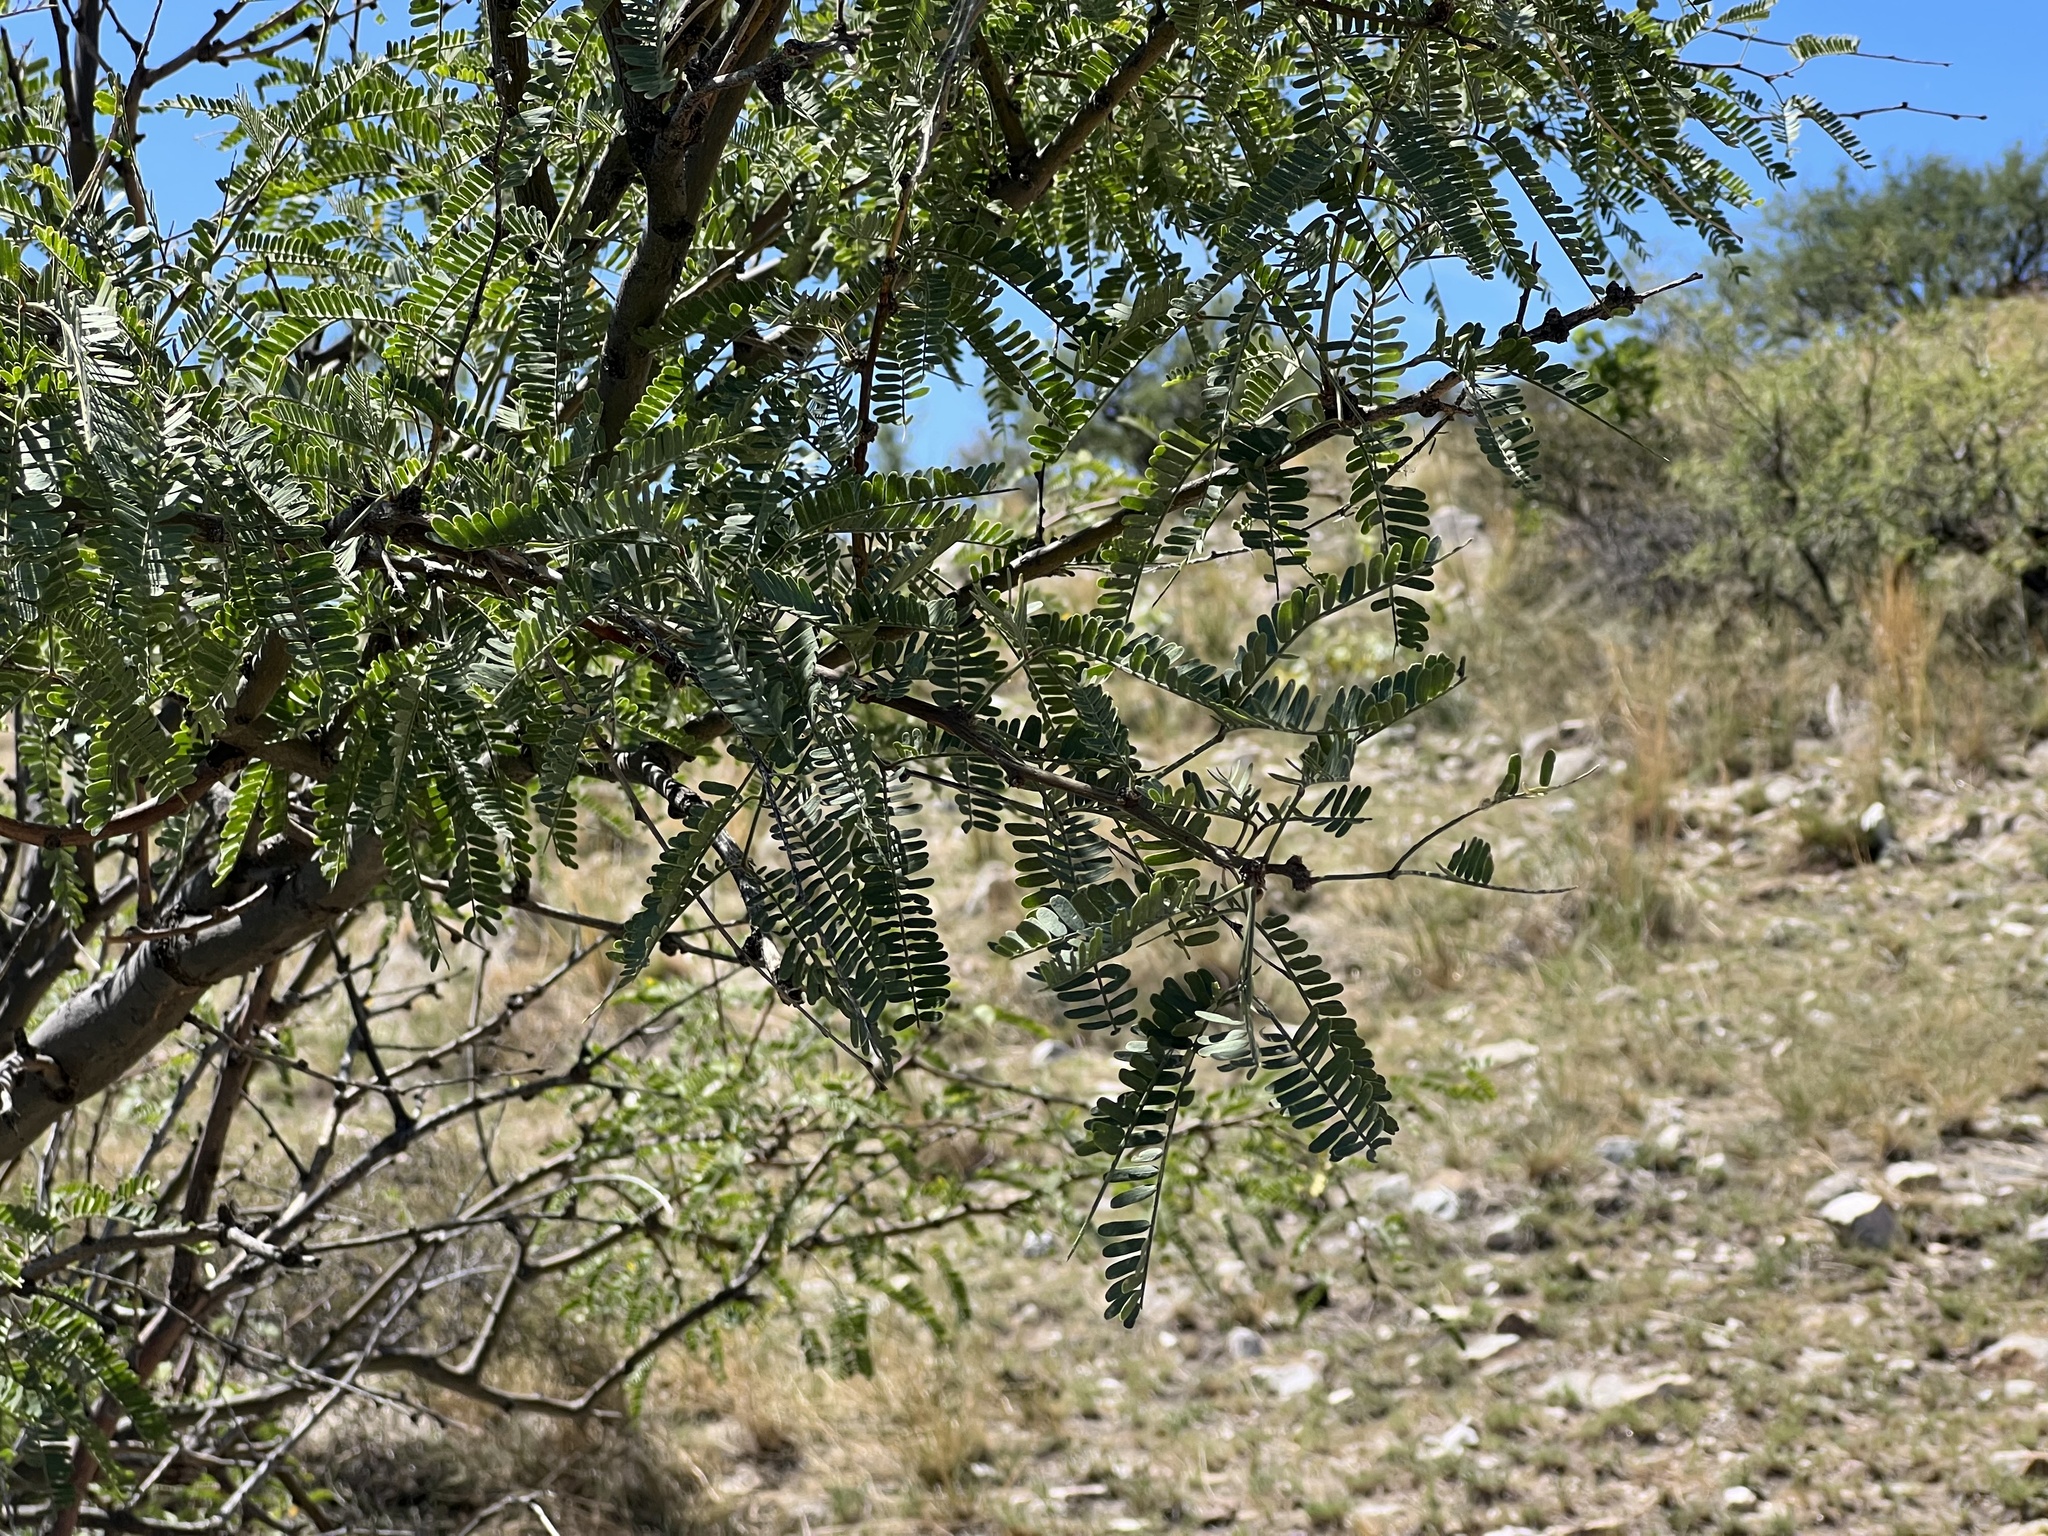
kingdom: Plantae
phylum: Tracheophyta
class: Magnoliopsida
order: Fabales
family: Fabaceae
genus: Prosopis
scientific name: Prosopis velutina
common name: Velvet mesquite
